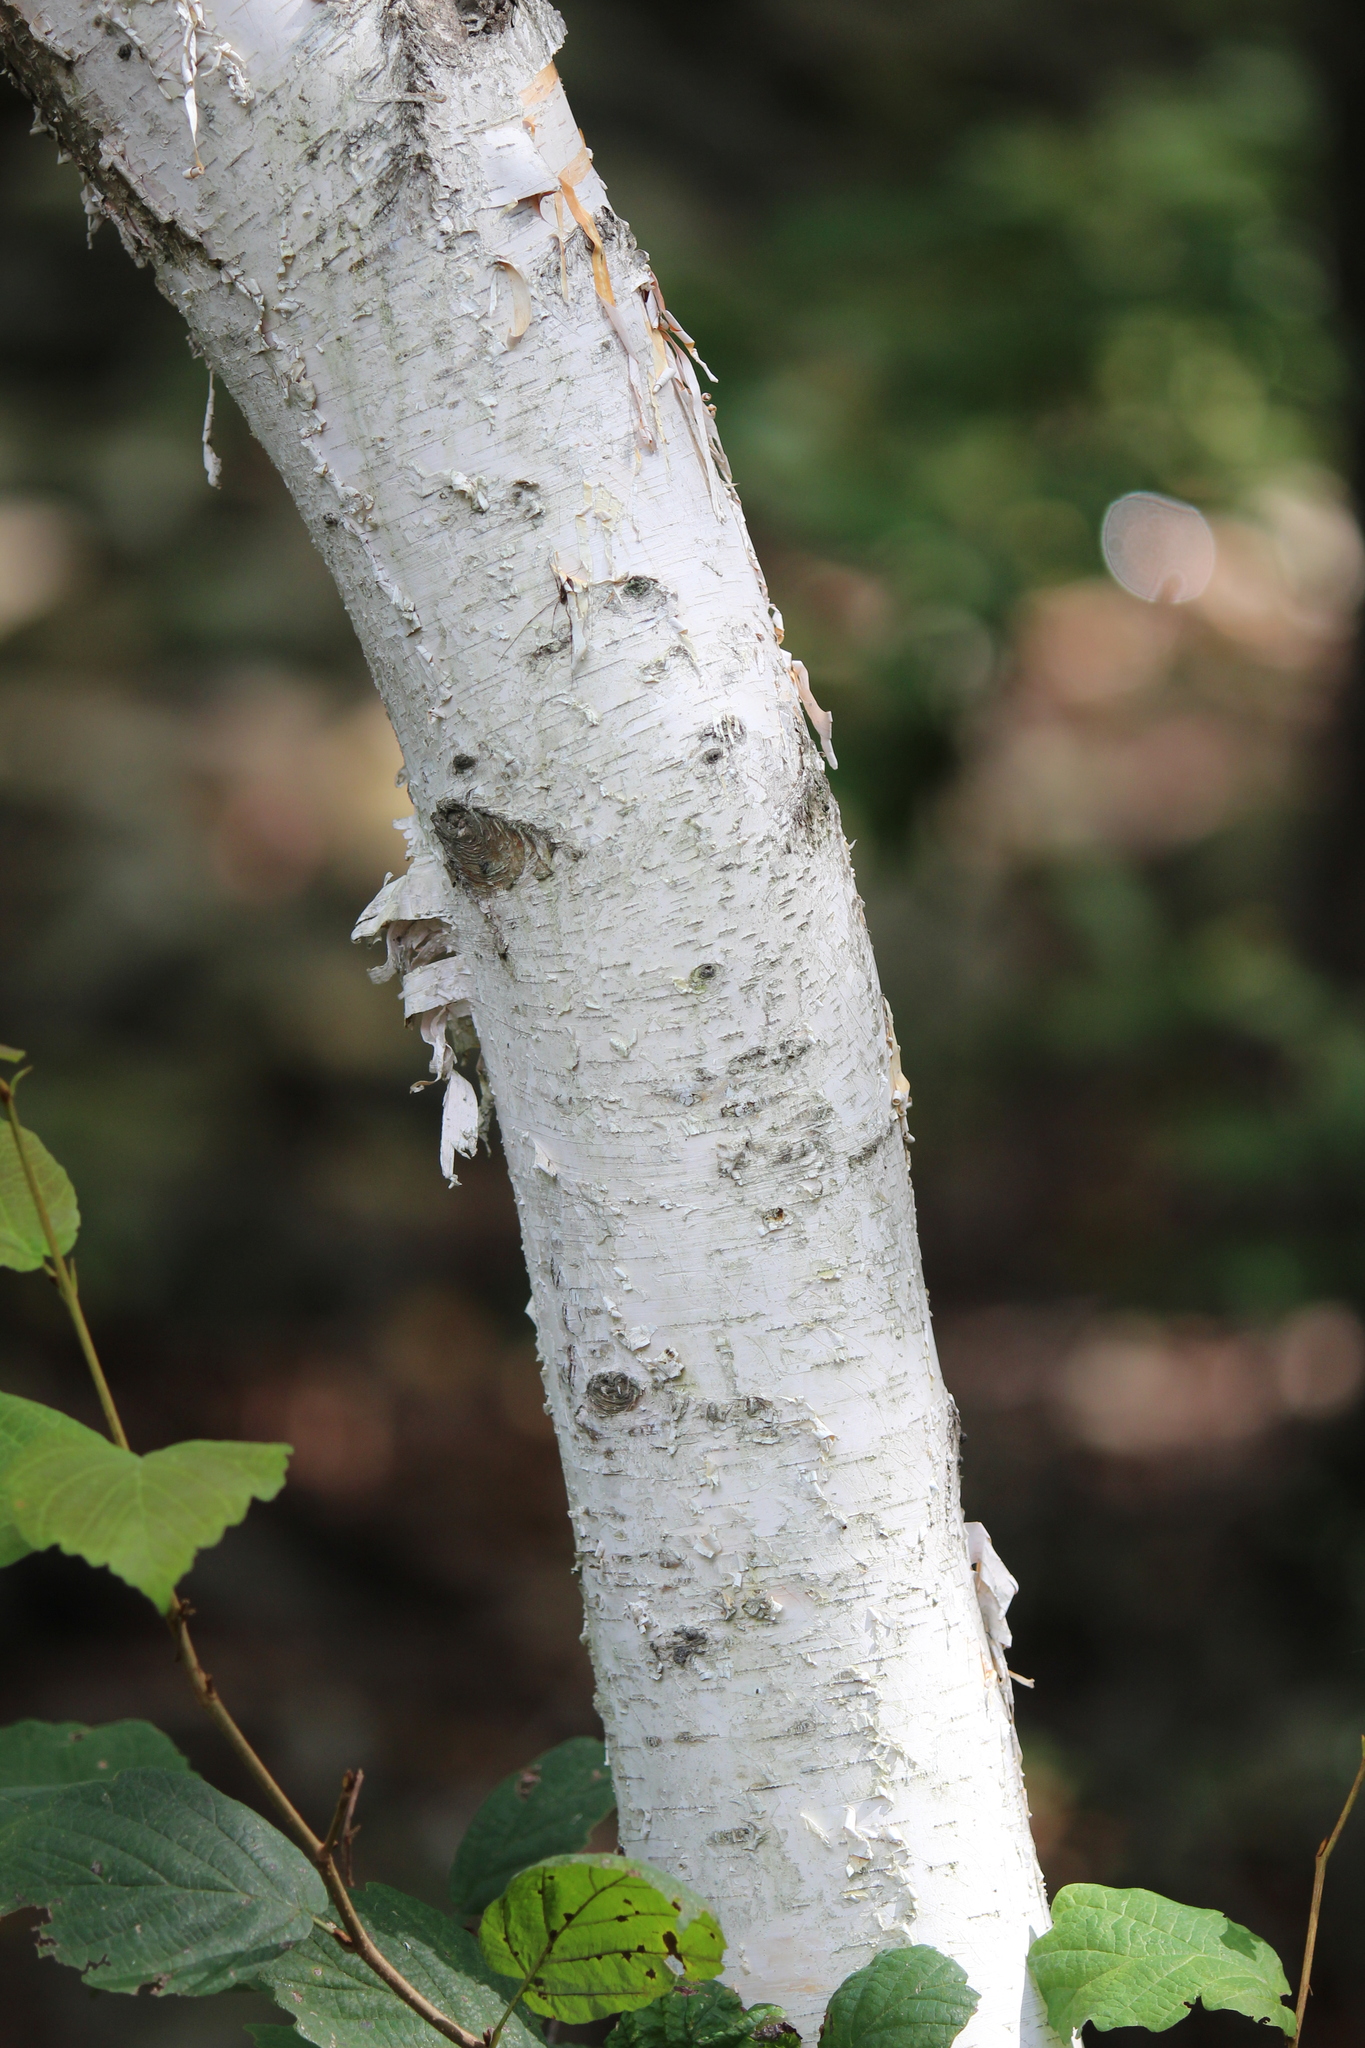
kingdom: Plantae
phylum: Tracheophyta
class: Magnoliopsida
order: Fagales
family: Betulaceae
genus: Betula
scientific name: Betula papyrifera
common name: Paper birch
